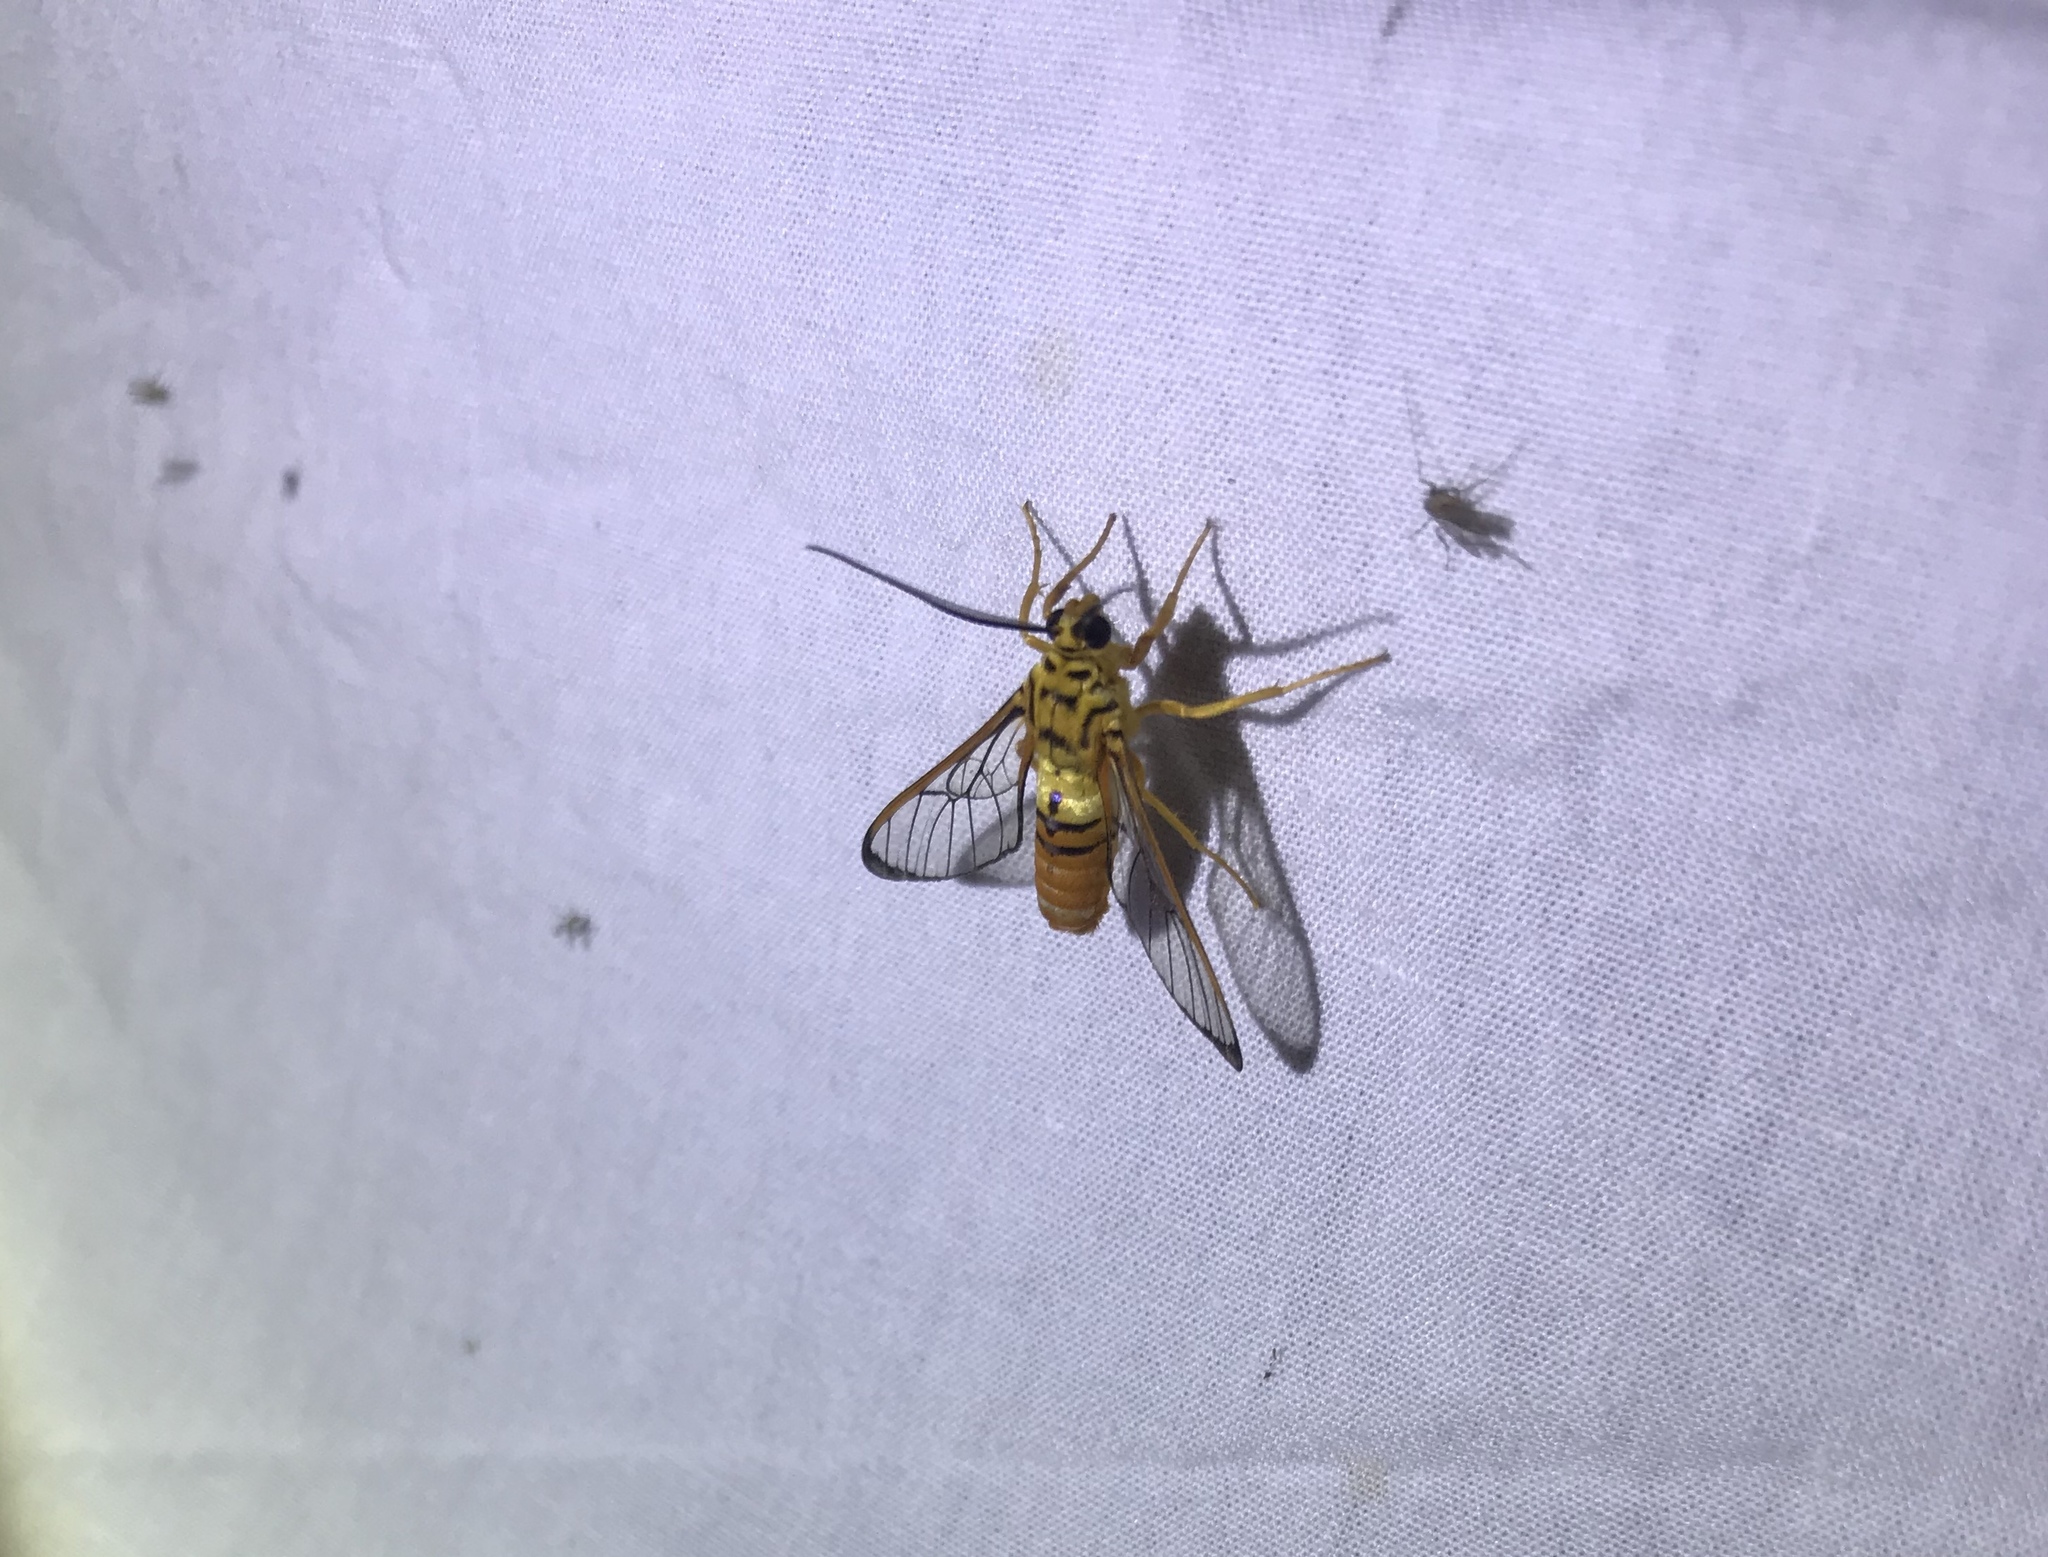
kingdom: Animalia
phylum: Arthropoda
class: Insecta
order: Lepidoptera
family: Erebidae
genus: Abrochia
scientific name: Abrochia fulvisphex
